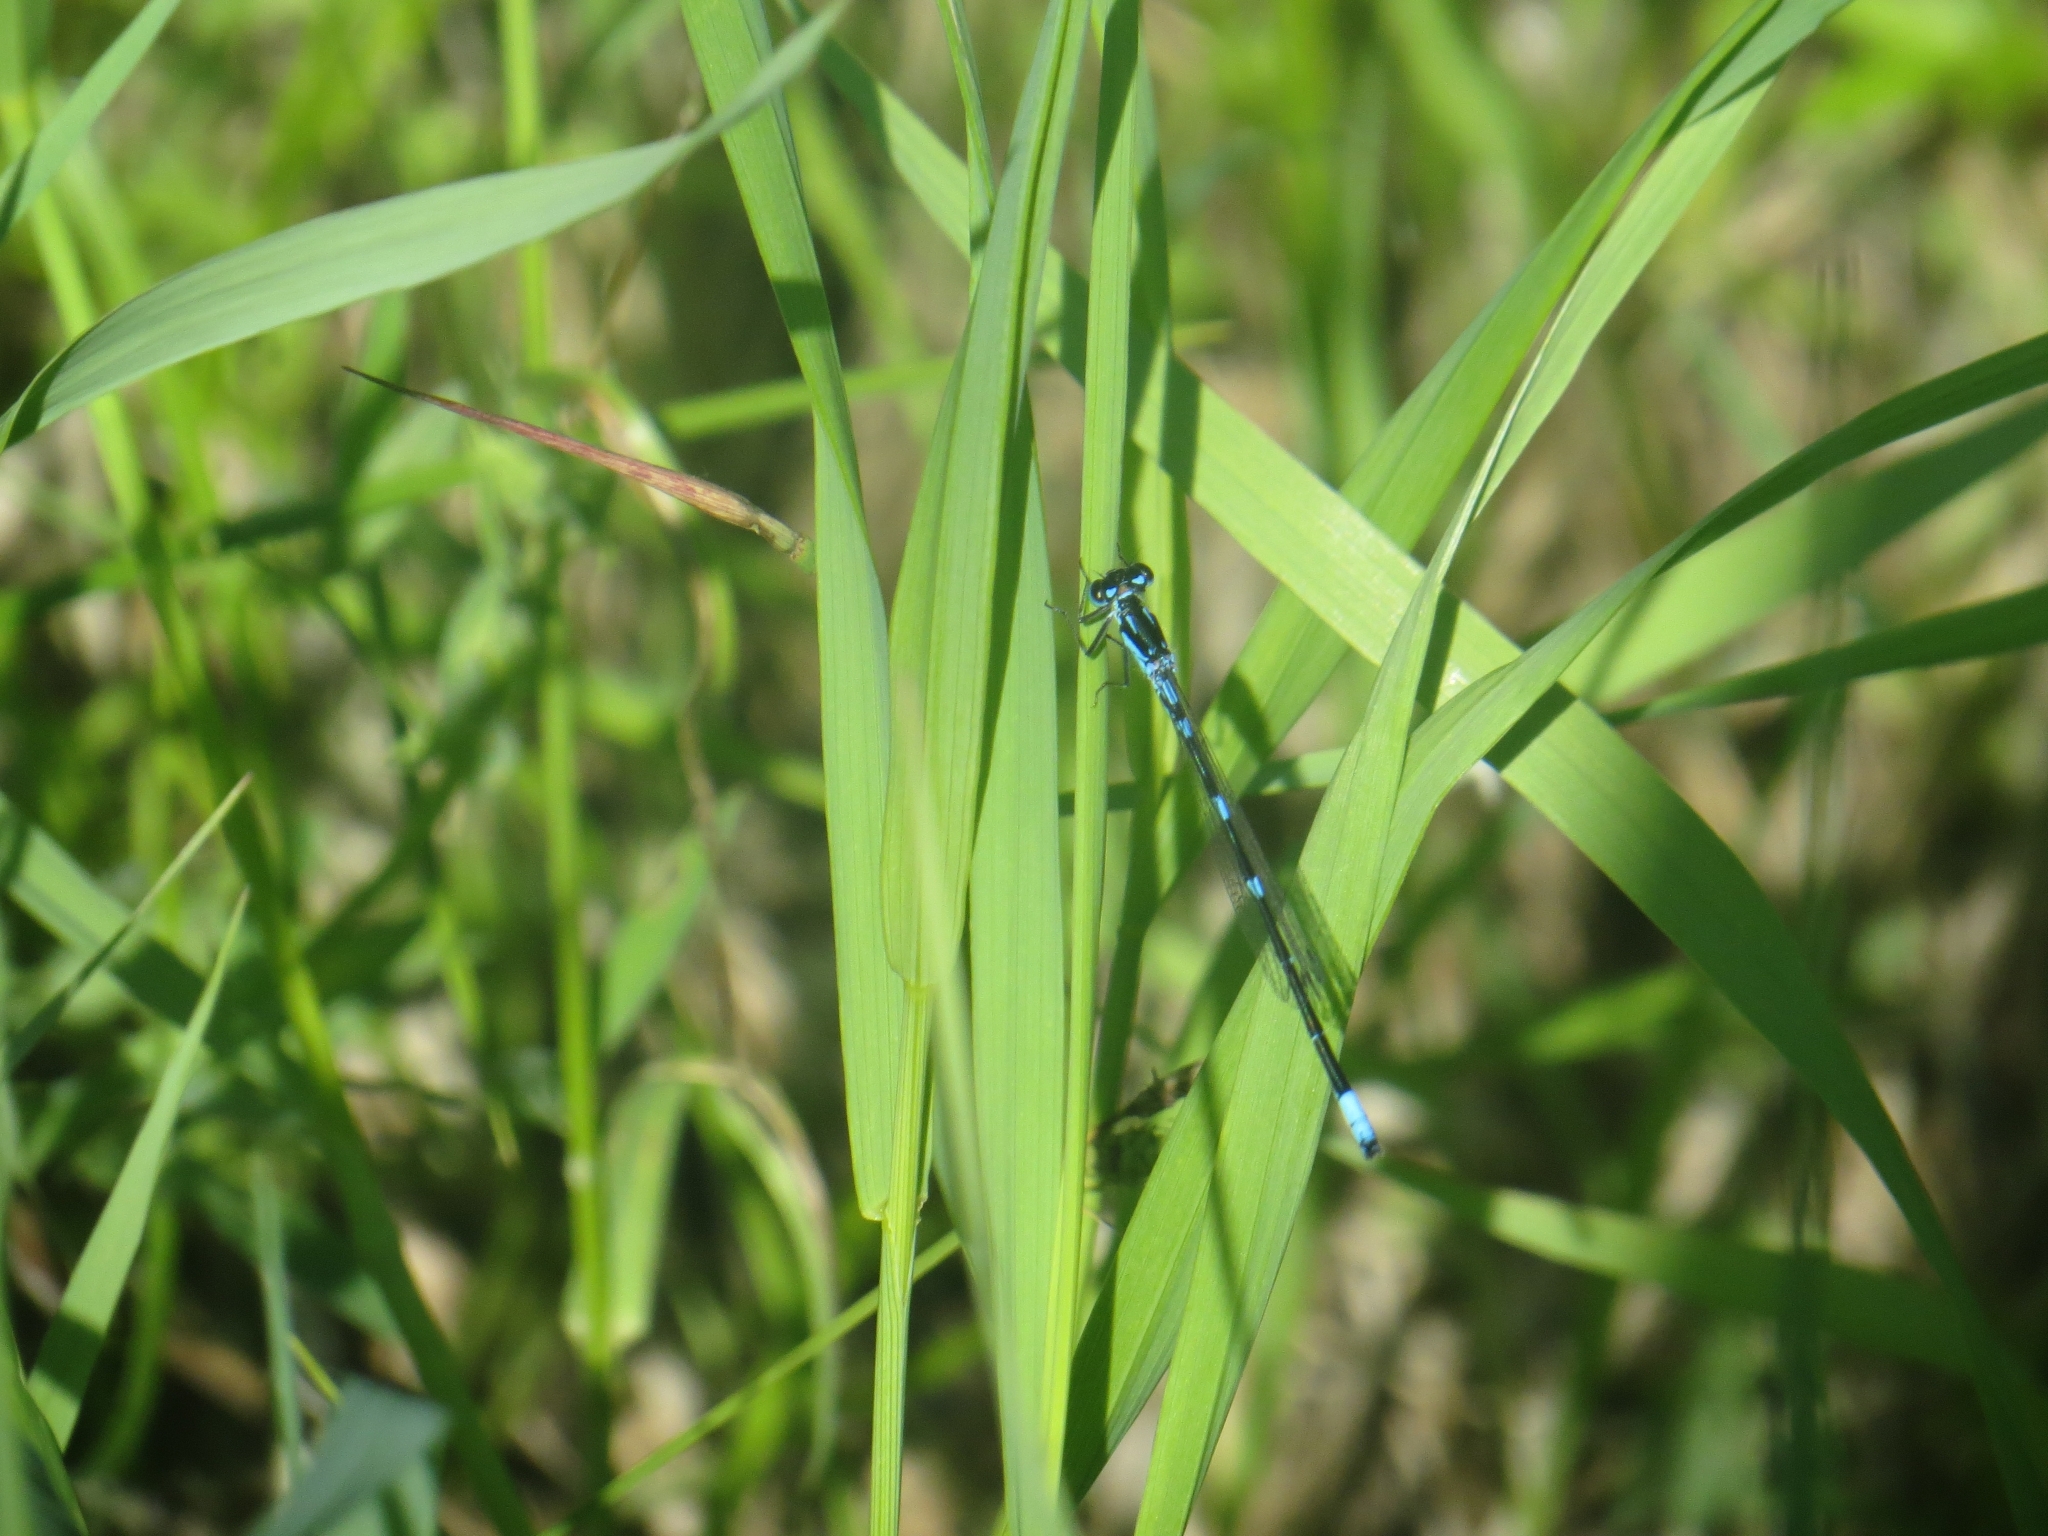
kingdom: Animalia
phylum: Arthropoda
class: Insecta
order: Odonata
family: Coenagrionidae
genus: Coenagrion
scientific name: Coenagrion pulchellum
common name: Variable bluet
